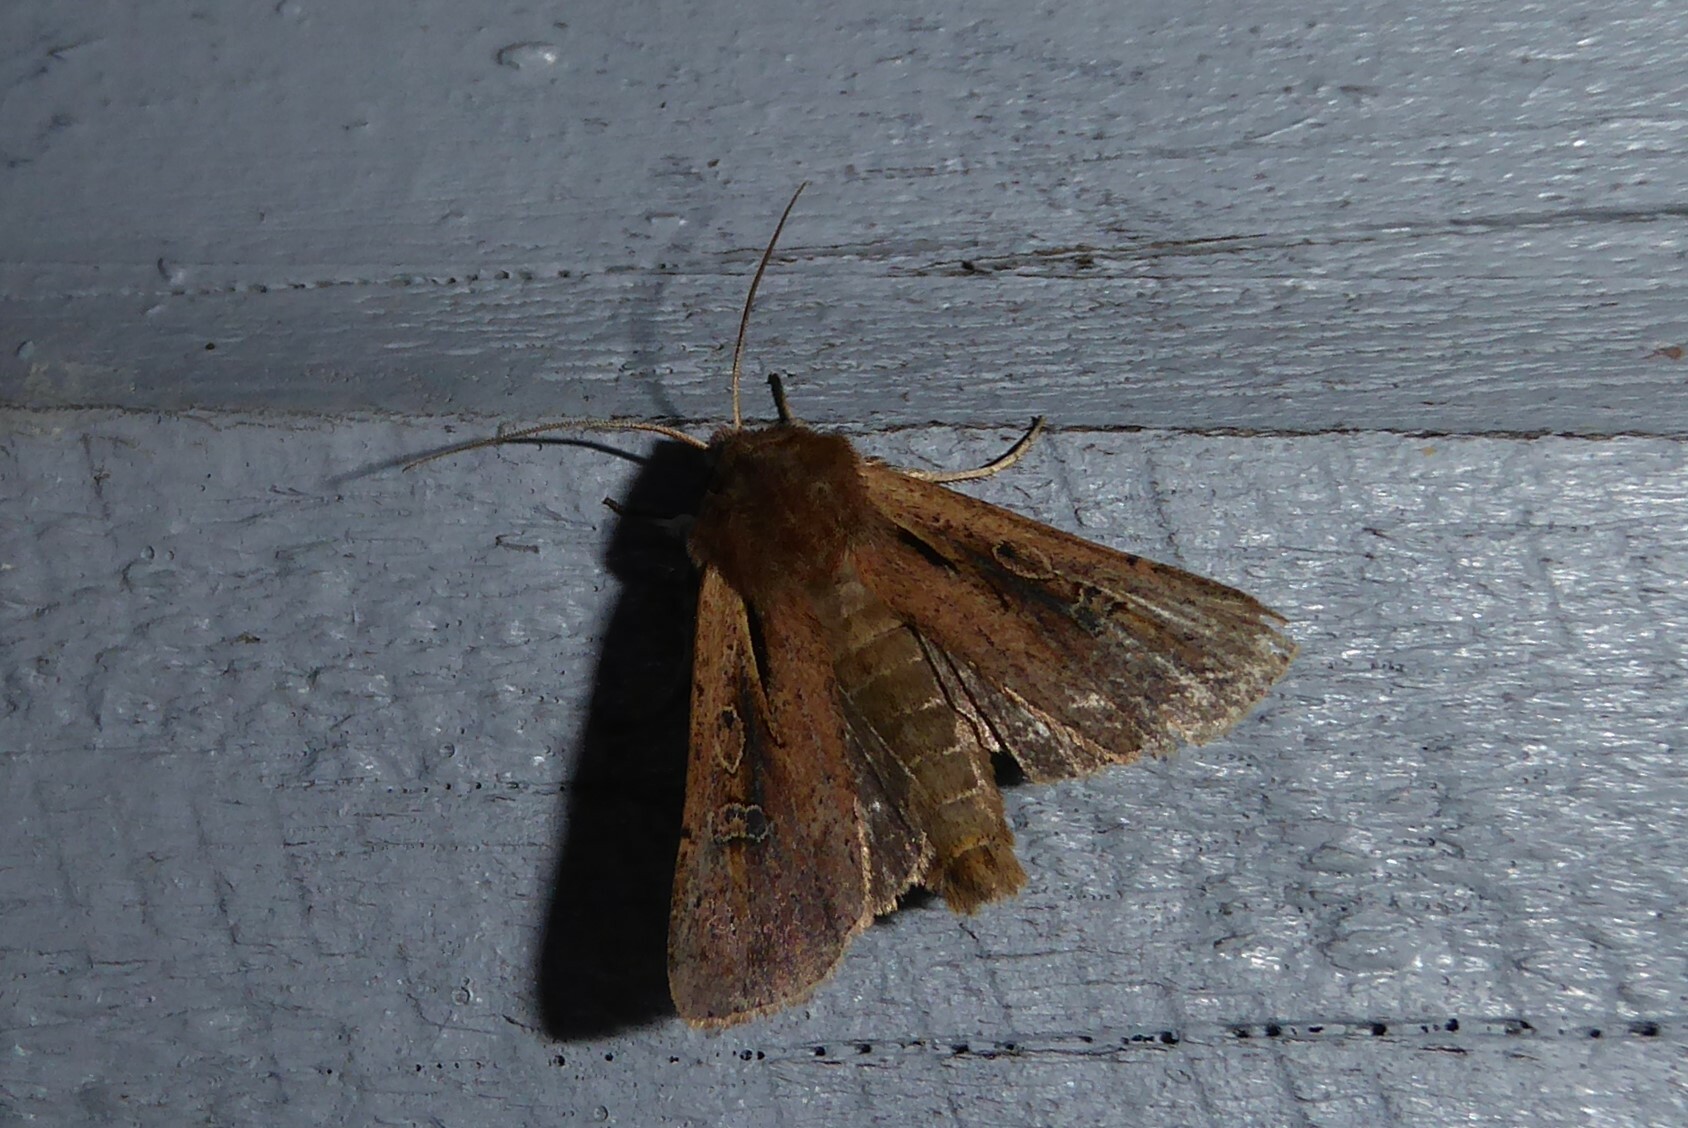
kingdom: Animalia
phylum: Arthropoda
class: Insecta
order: Lepidoptera
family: Noctuidae
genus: Ichneutica
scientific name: Ichneutica atristriga
